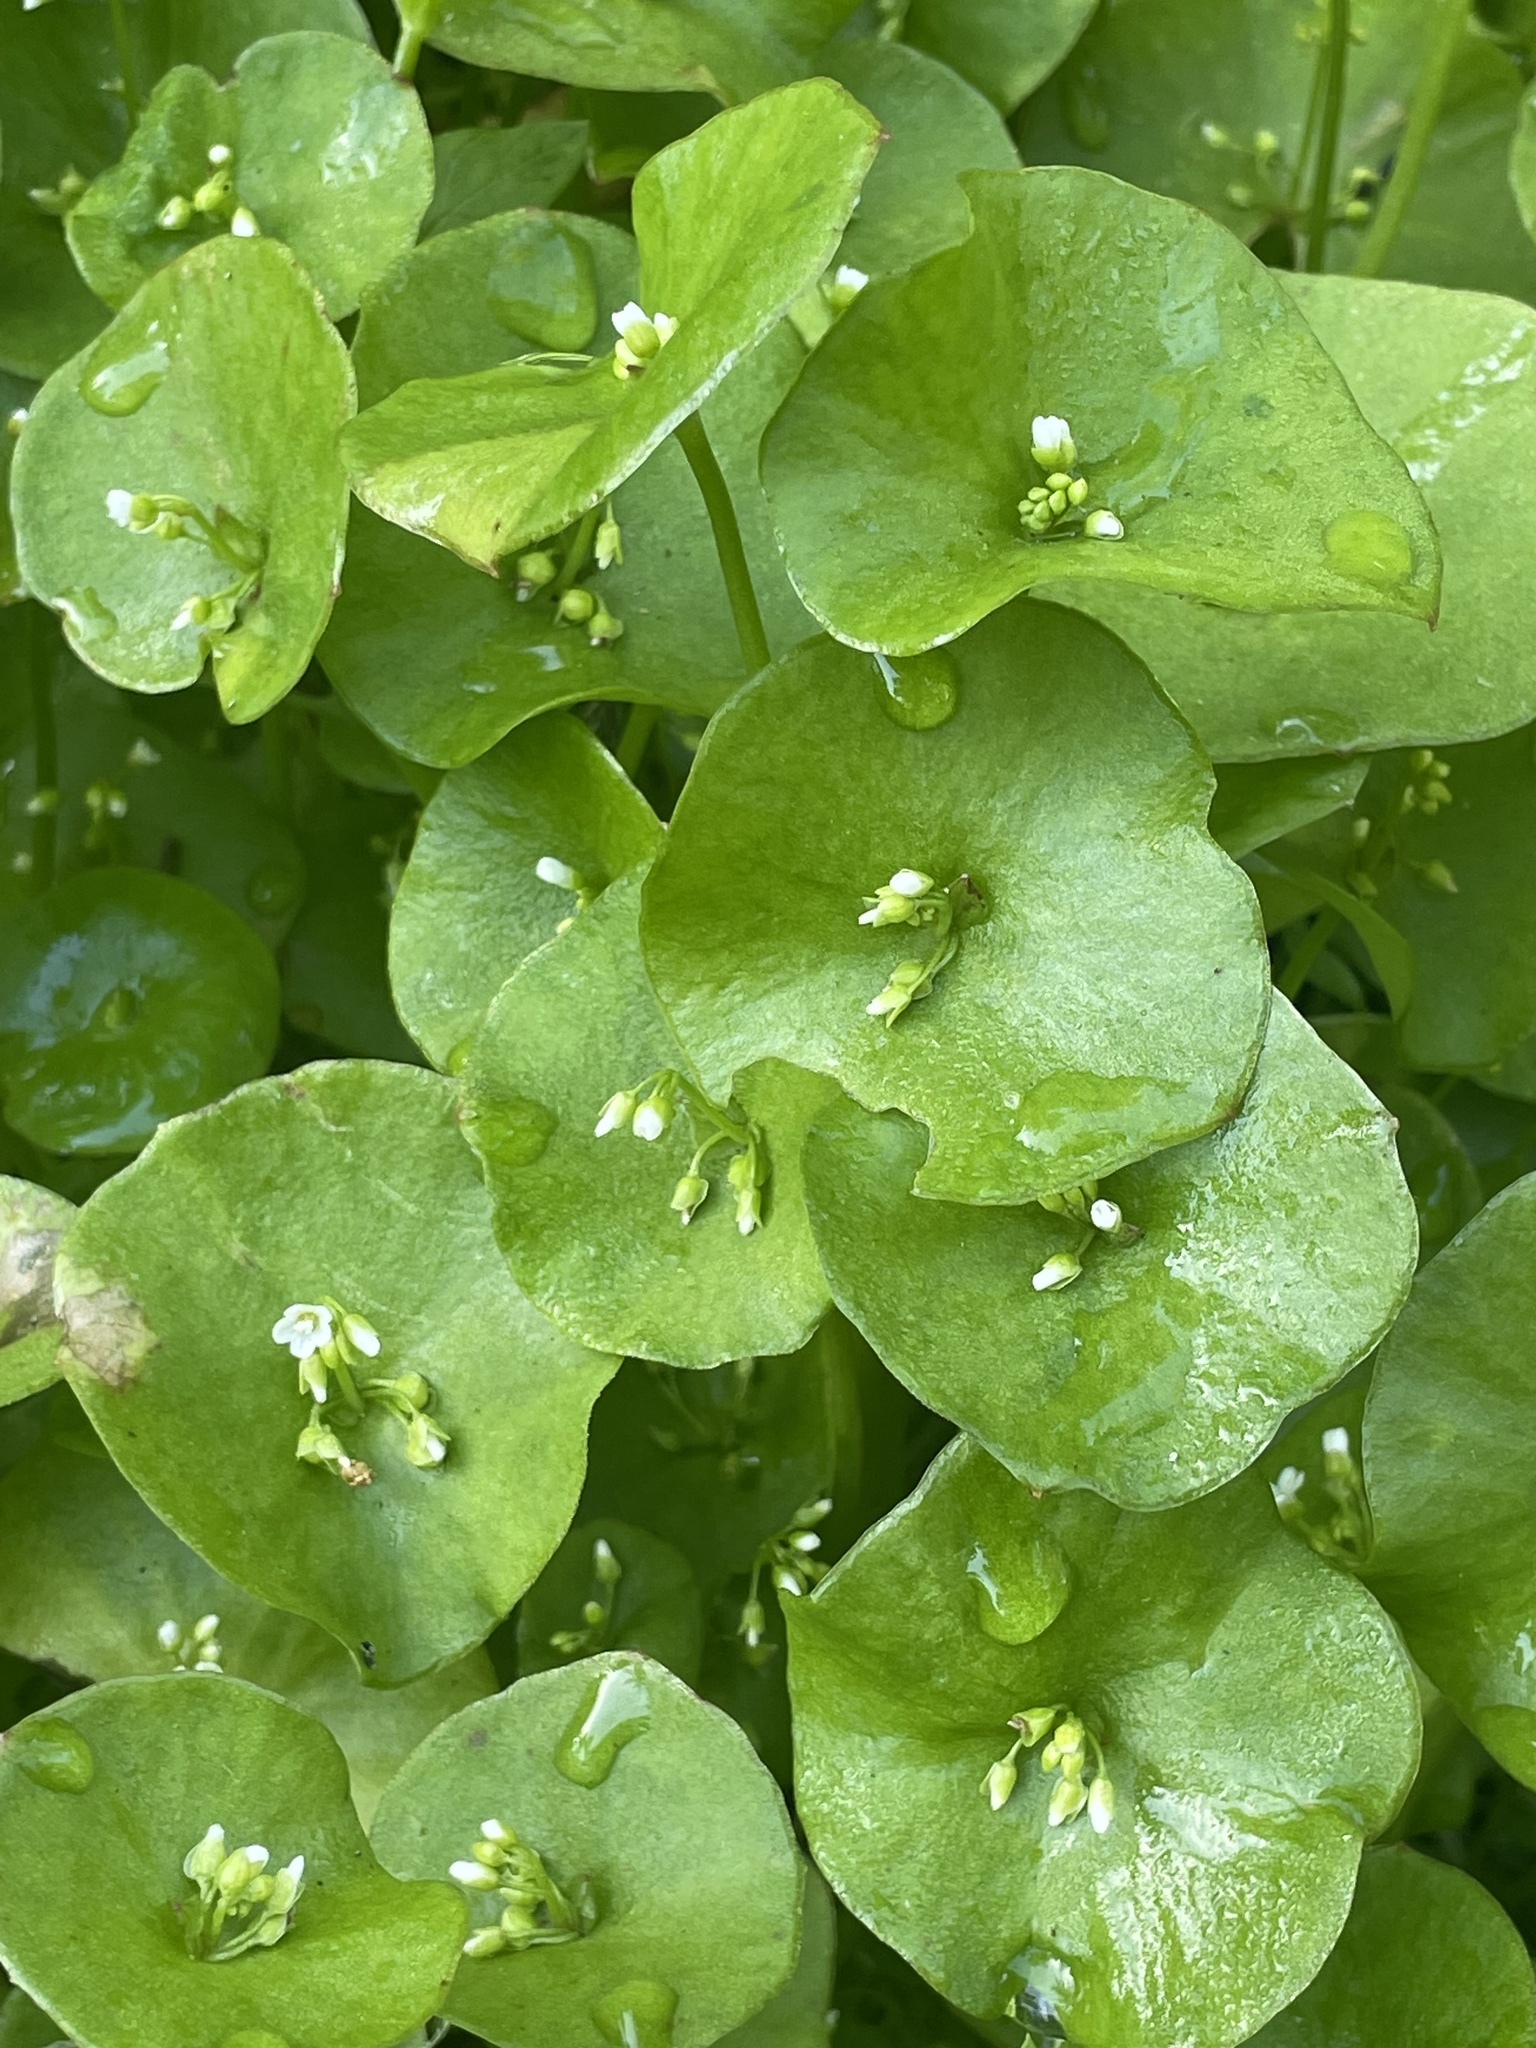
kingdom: Plantae
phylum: Tracheophyta
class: Magnoliopsida
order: Caryophyllales
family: Montiaceae
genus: Claytonia
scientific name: Claytonia perfoliata
